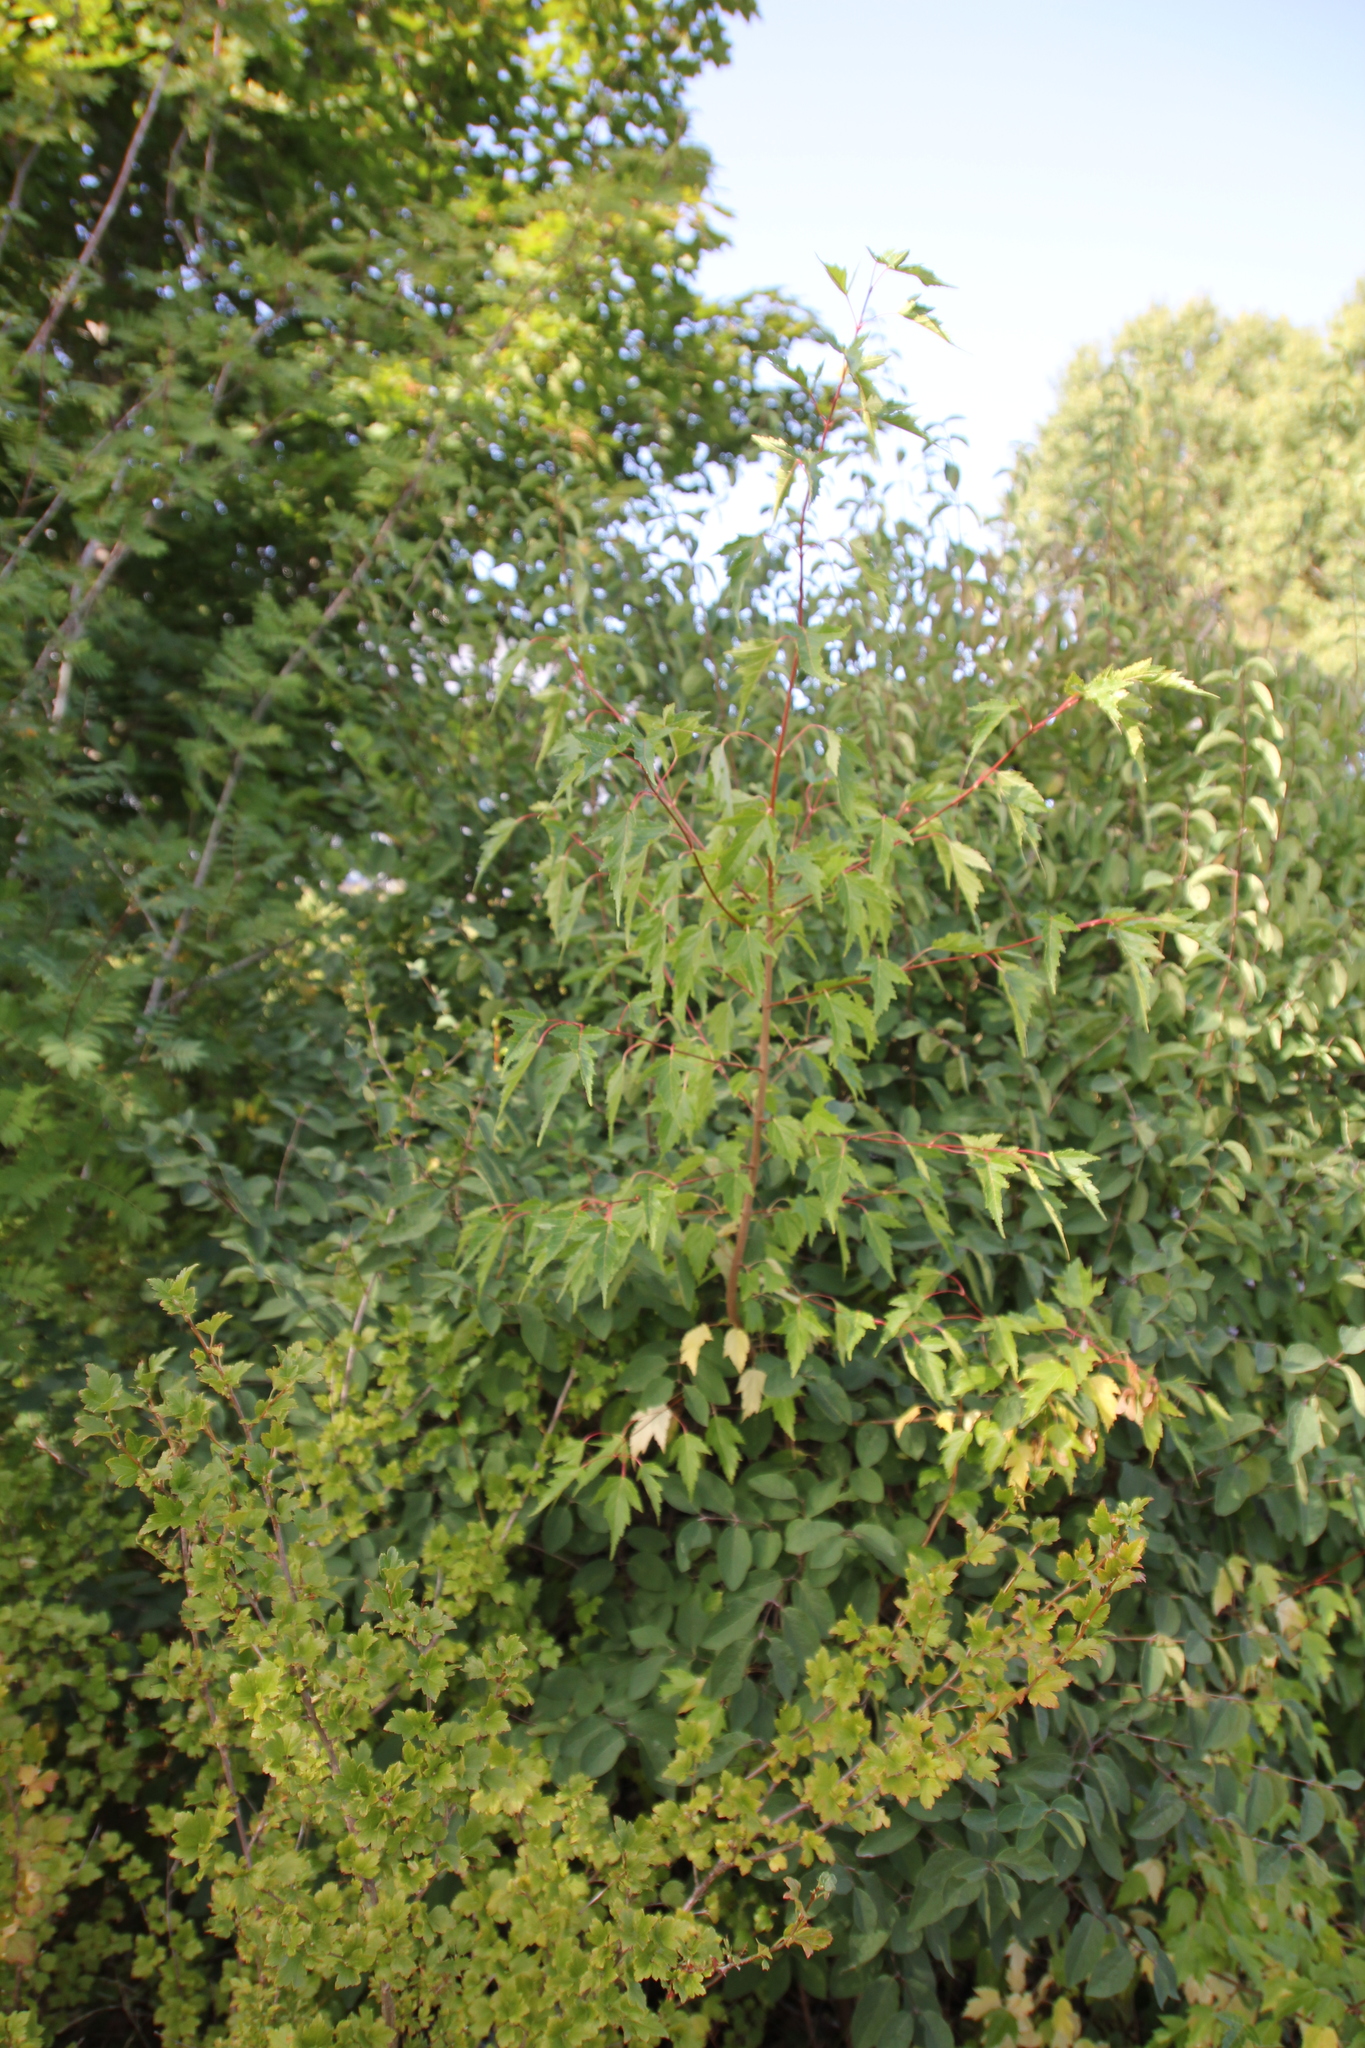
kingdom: Plantae
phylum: Tracheophyta
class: Magnoliopsida
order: Sapindales
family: Sapindaceae
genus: Acer
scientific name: Acer tataricum
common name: Tartar maple
